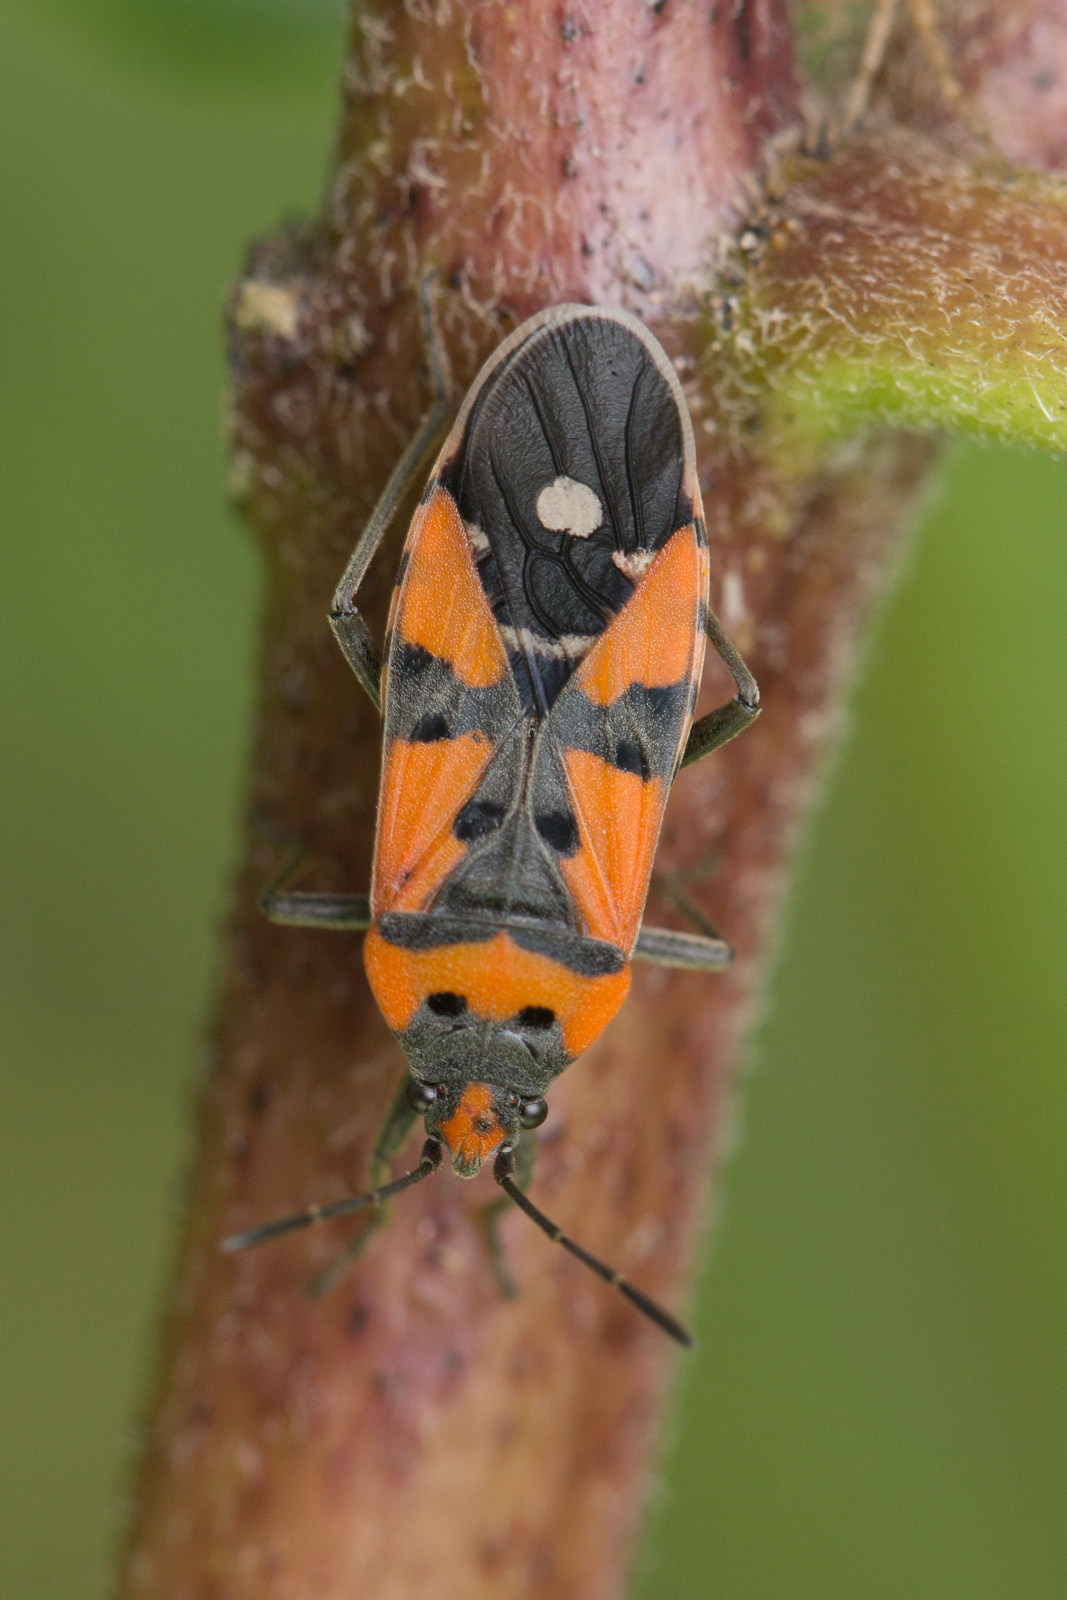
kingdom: Animalia
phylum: Arthropoda
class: Insecta
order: Hemiptera
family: Lygaeidae
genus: Lygaeus
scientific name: Lygaeus equestris
